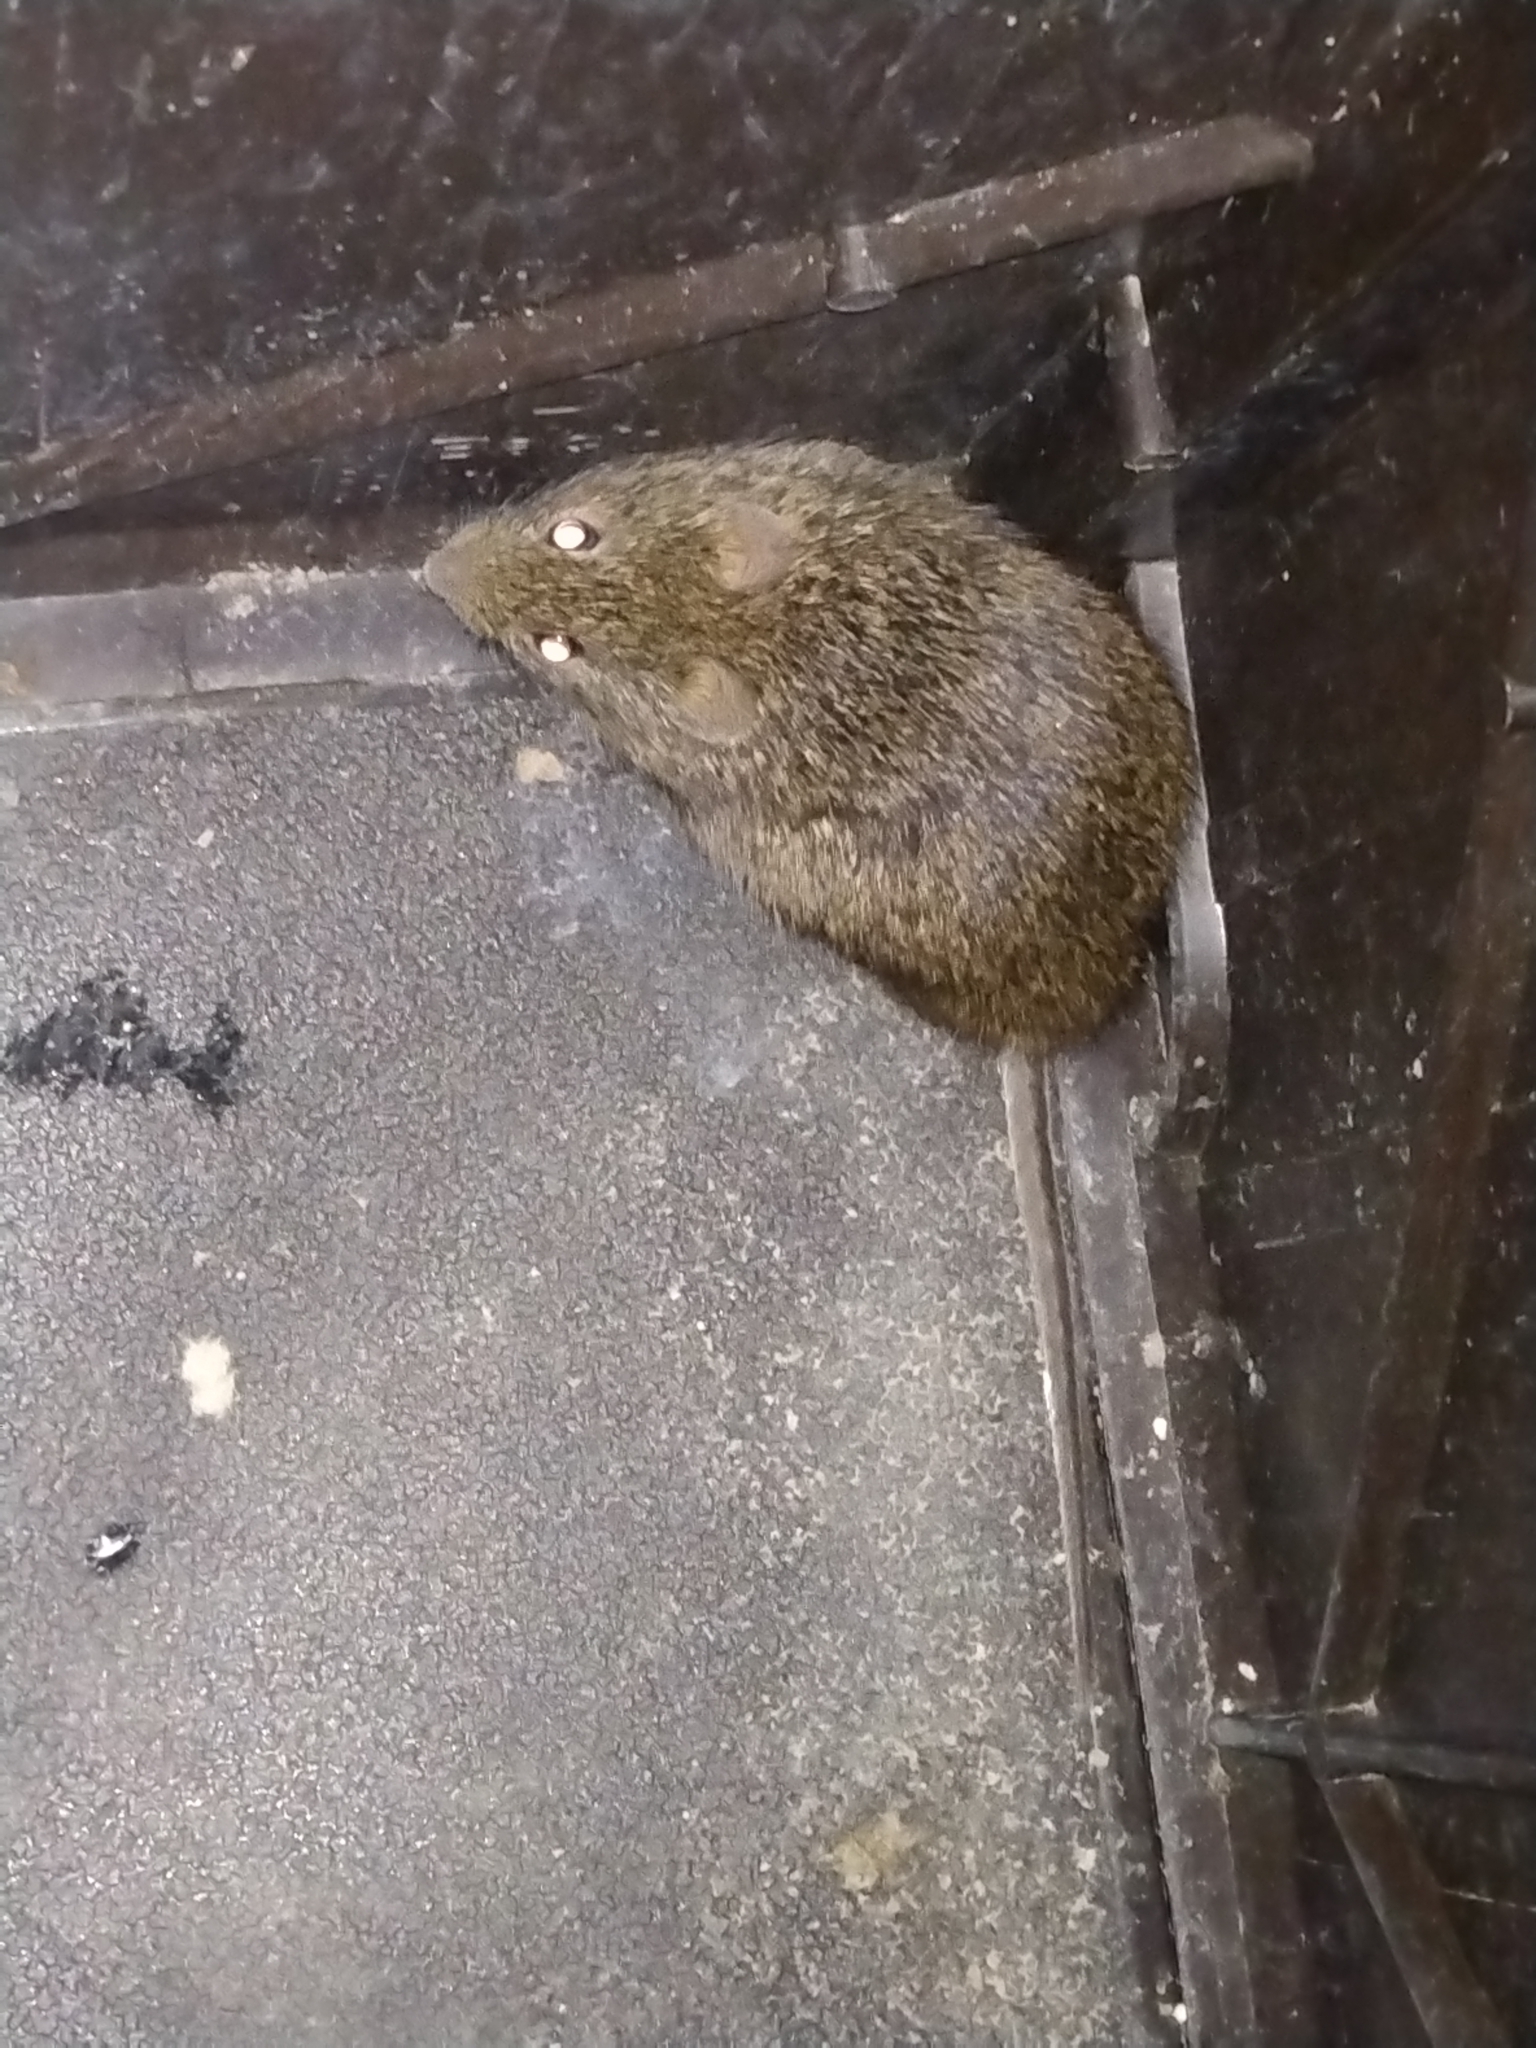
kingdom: Animalia
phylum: Chordata
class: Mammalia
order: Rodentia
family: Cricetidae
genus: Sigmodon
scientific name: Sigmodon hispidus
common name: Hispid cotton rat
